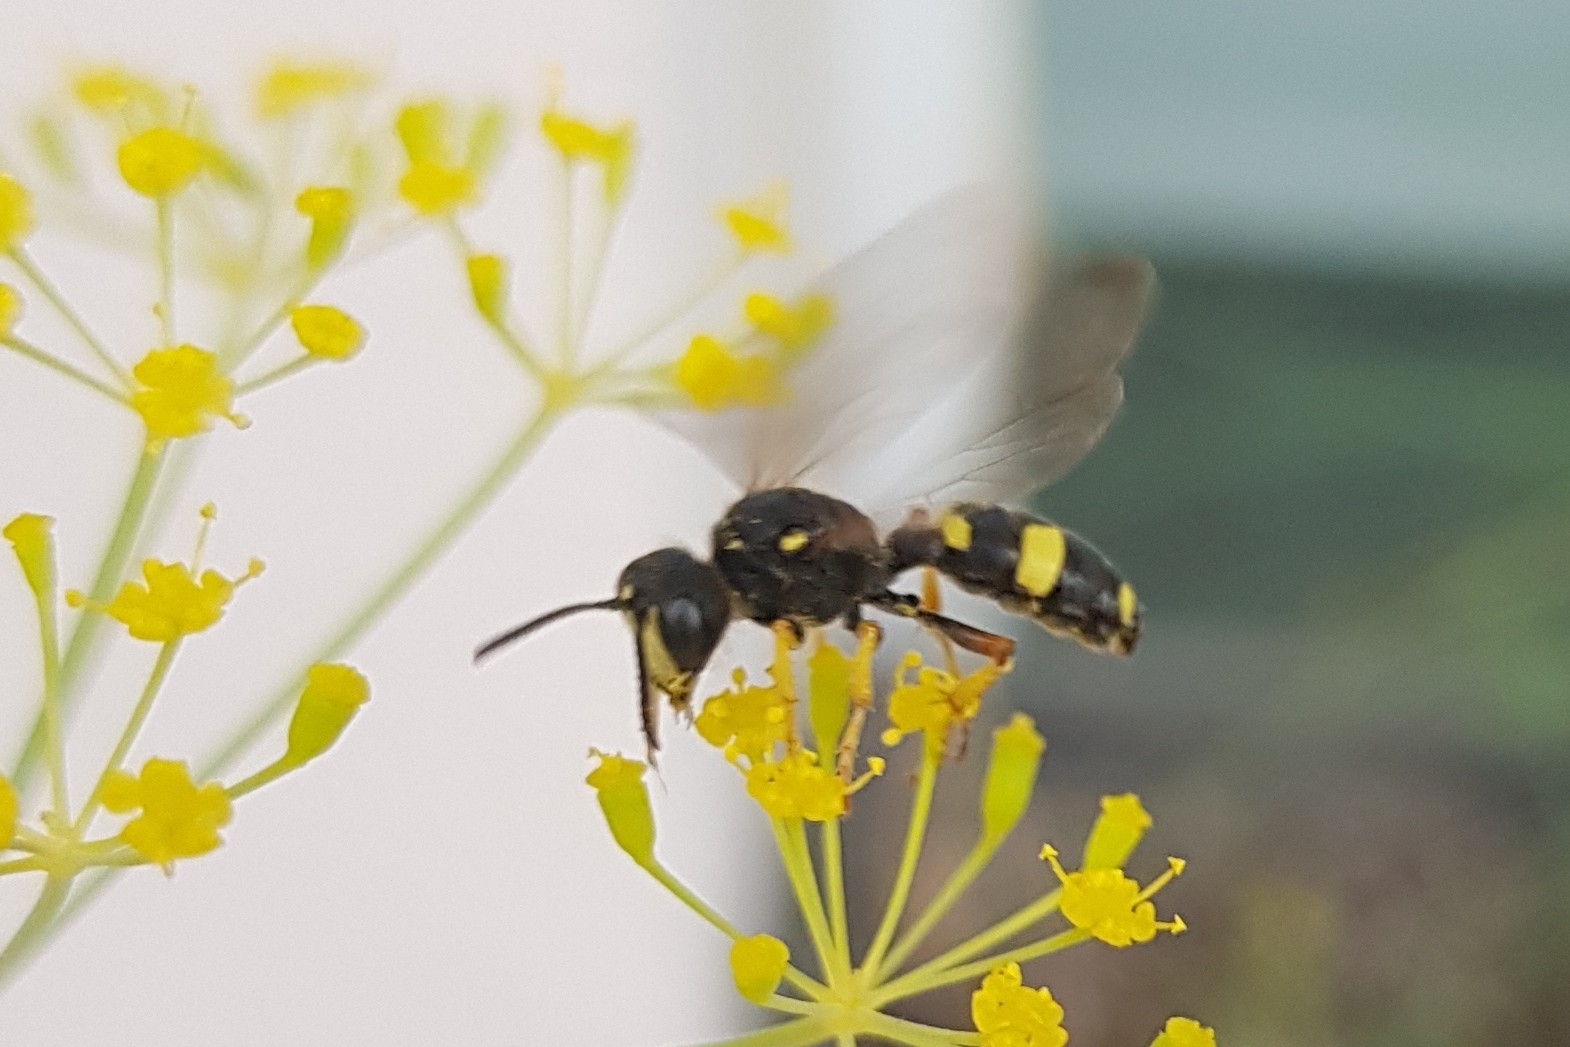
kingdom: Animalia
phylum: Arthropoda
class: Insecta
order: Hymenoptera
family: Crabronidae
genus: Cerceris
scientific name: Cerceris rybyensis
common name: Ornate tailed digger wasp
